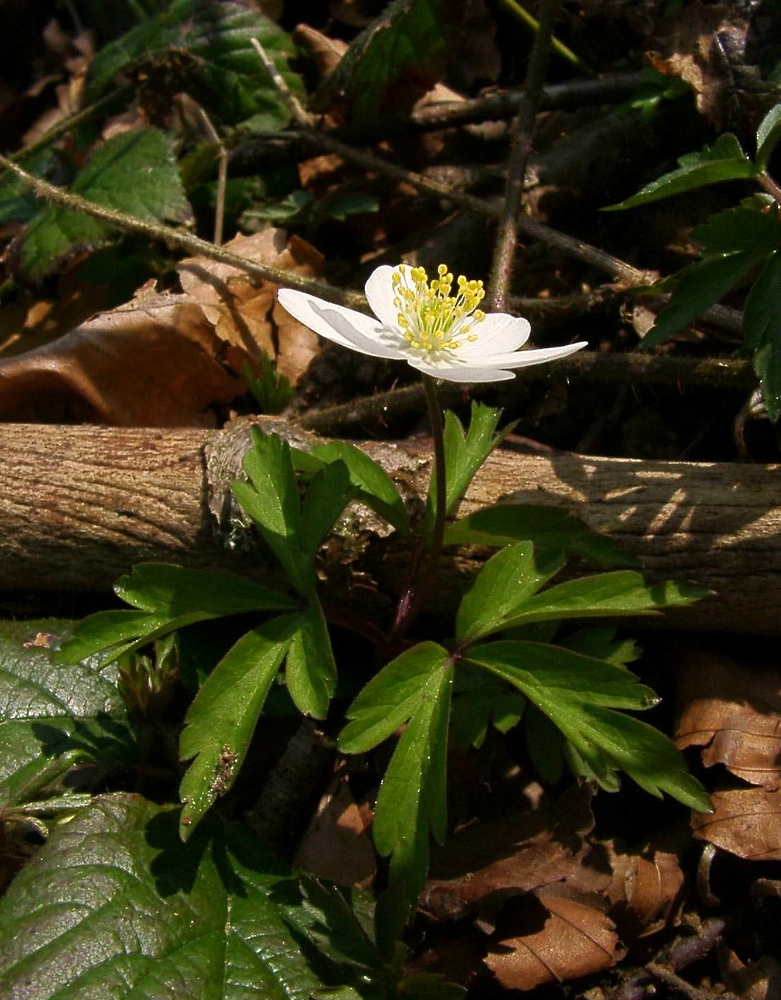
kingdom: Plantae
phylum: Tracheophyta
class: Magnoliopsida
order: Ranunculales
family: Ranunculaceae
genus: Anemone
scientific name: Anemone nemorosa
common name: Wood anemone
